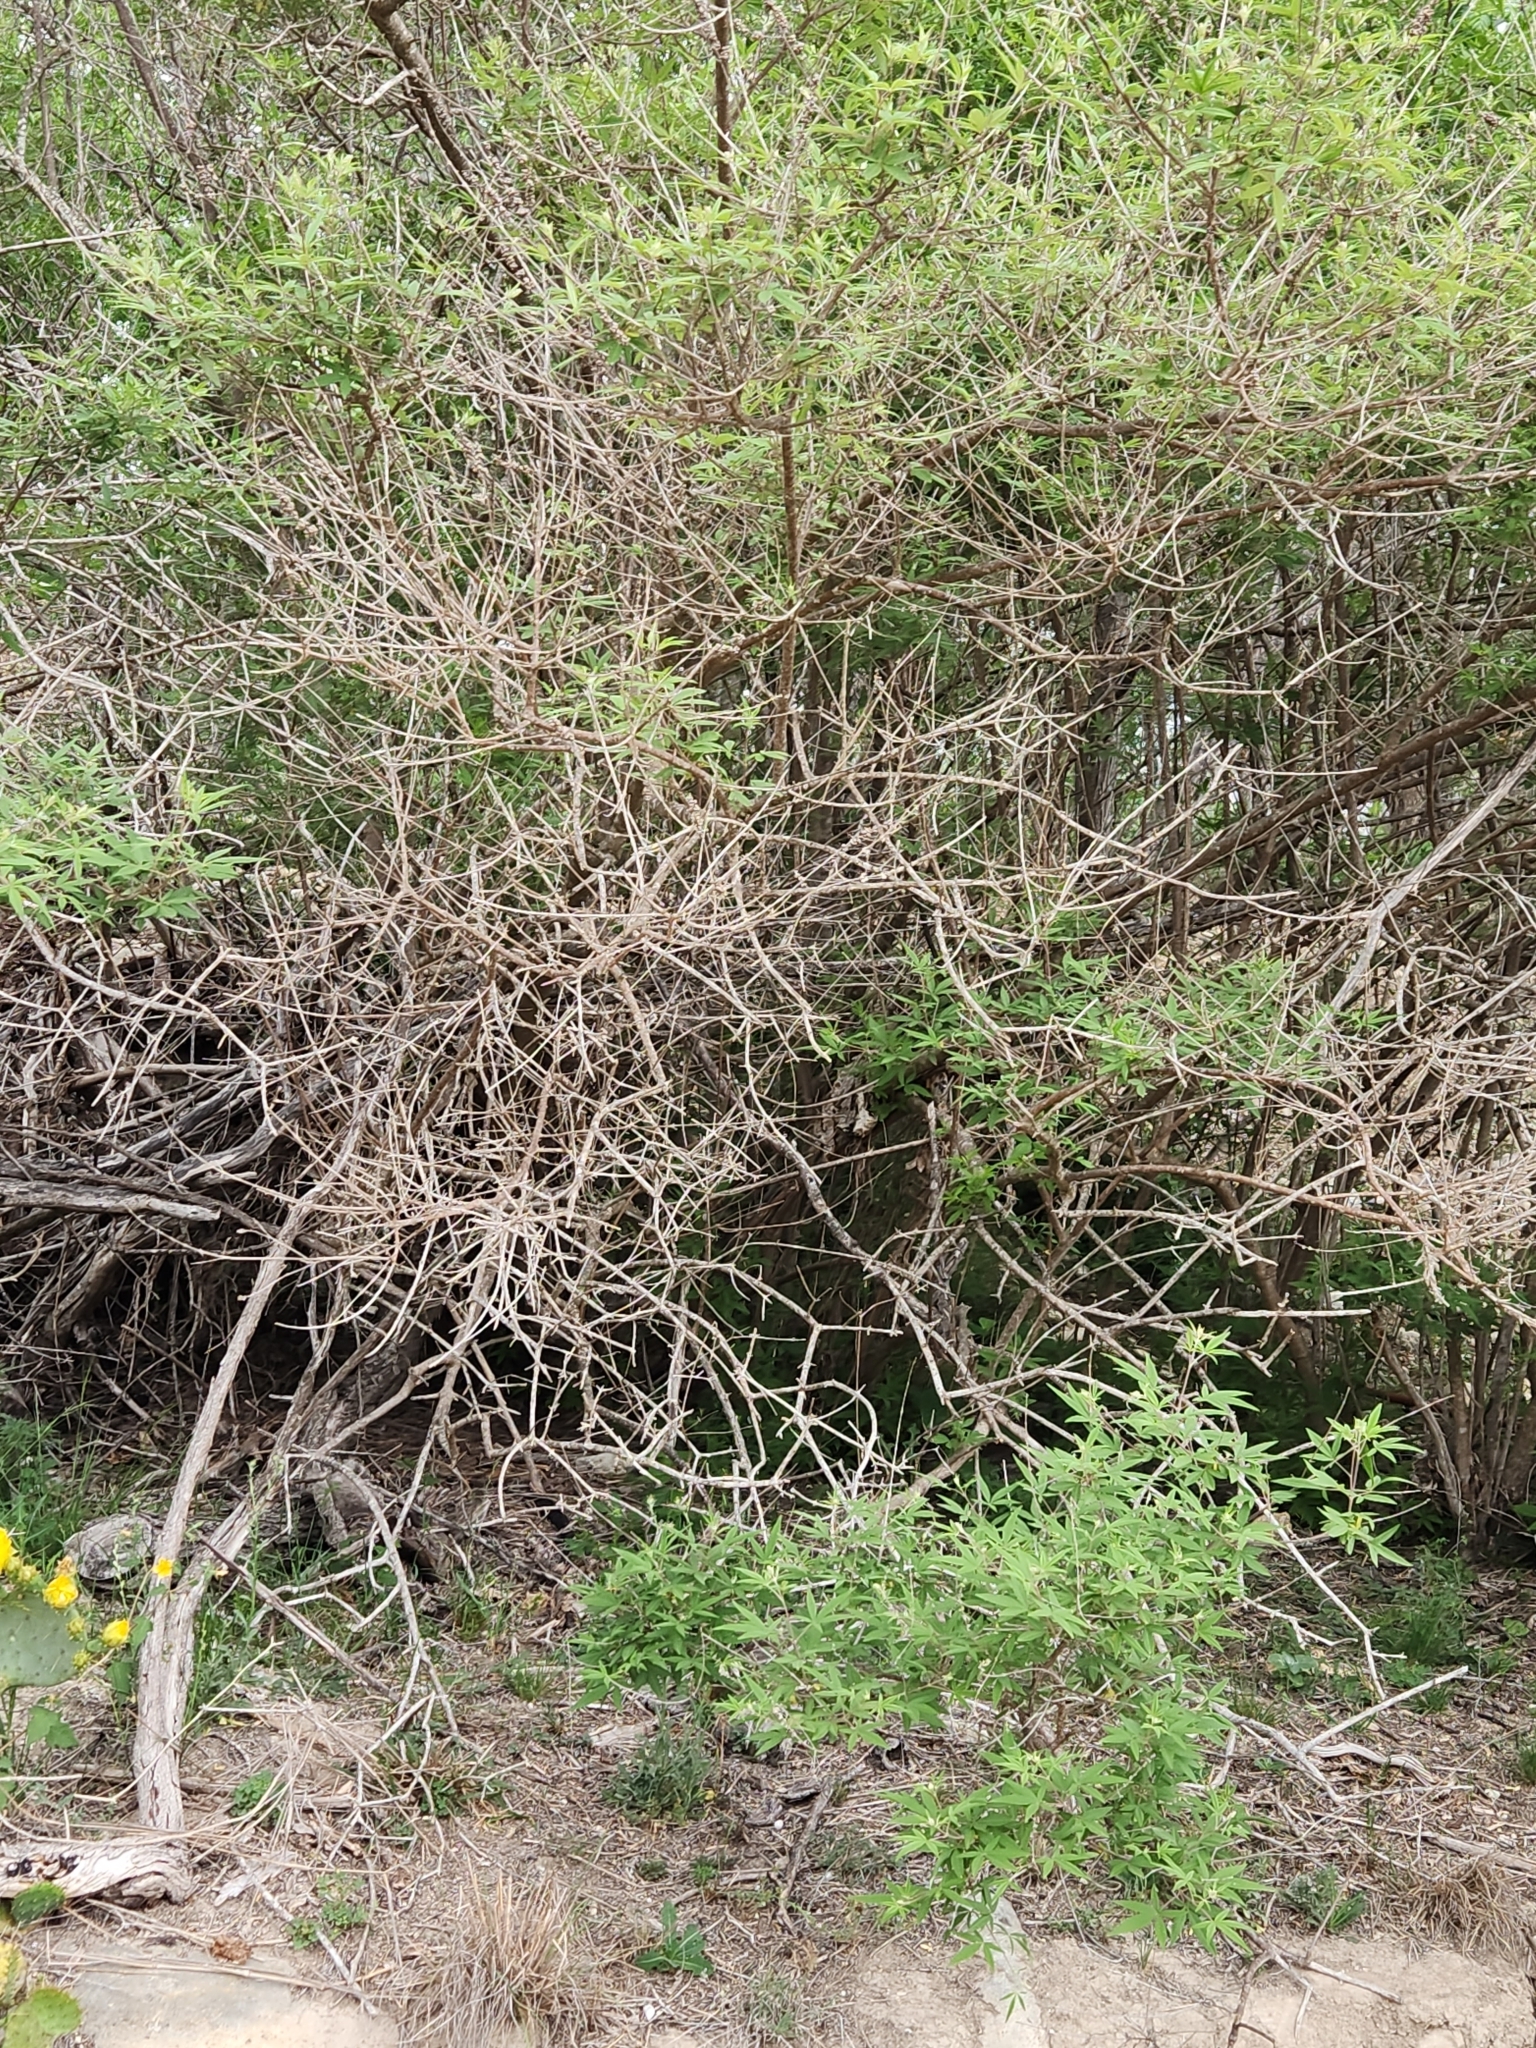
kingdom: Plantae
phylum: Tracheophyta
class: Magnoliopsida
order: Lamiales
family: Lamiaceae
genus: Vitex
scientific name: Vitex agnus-castus
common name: Chasteberry
